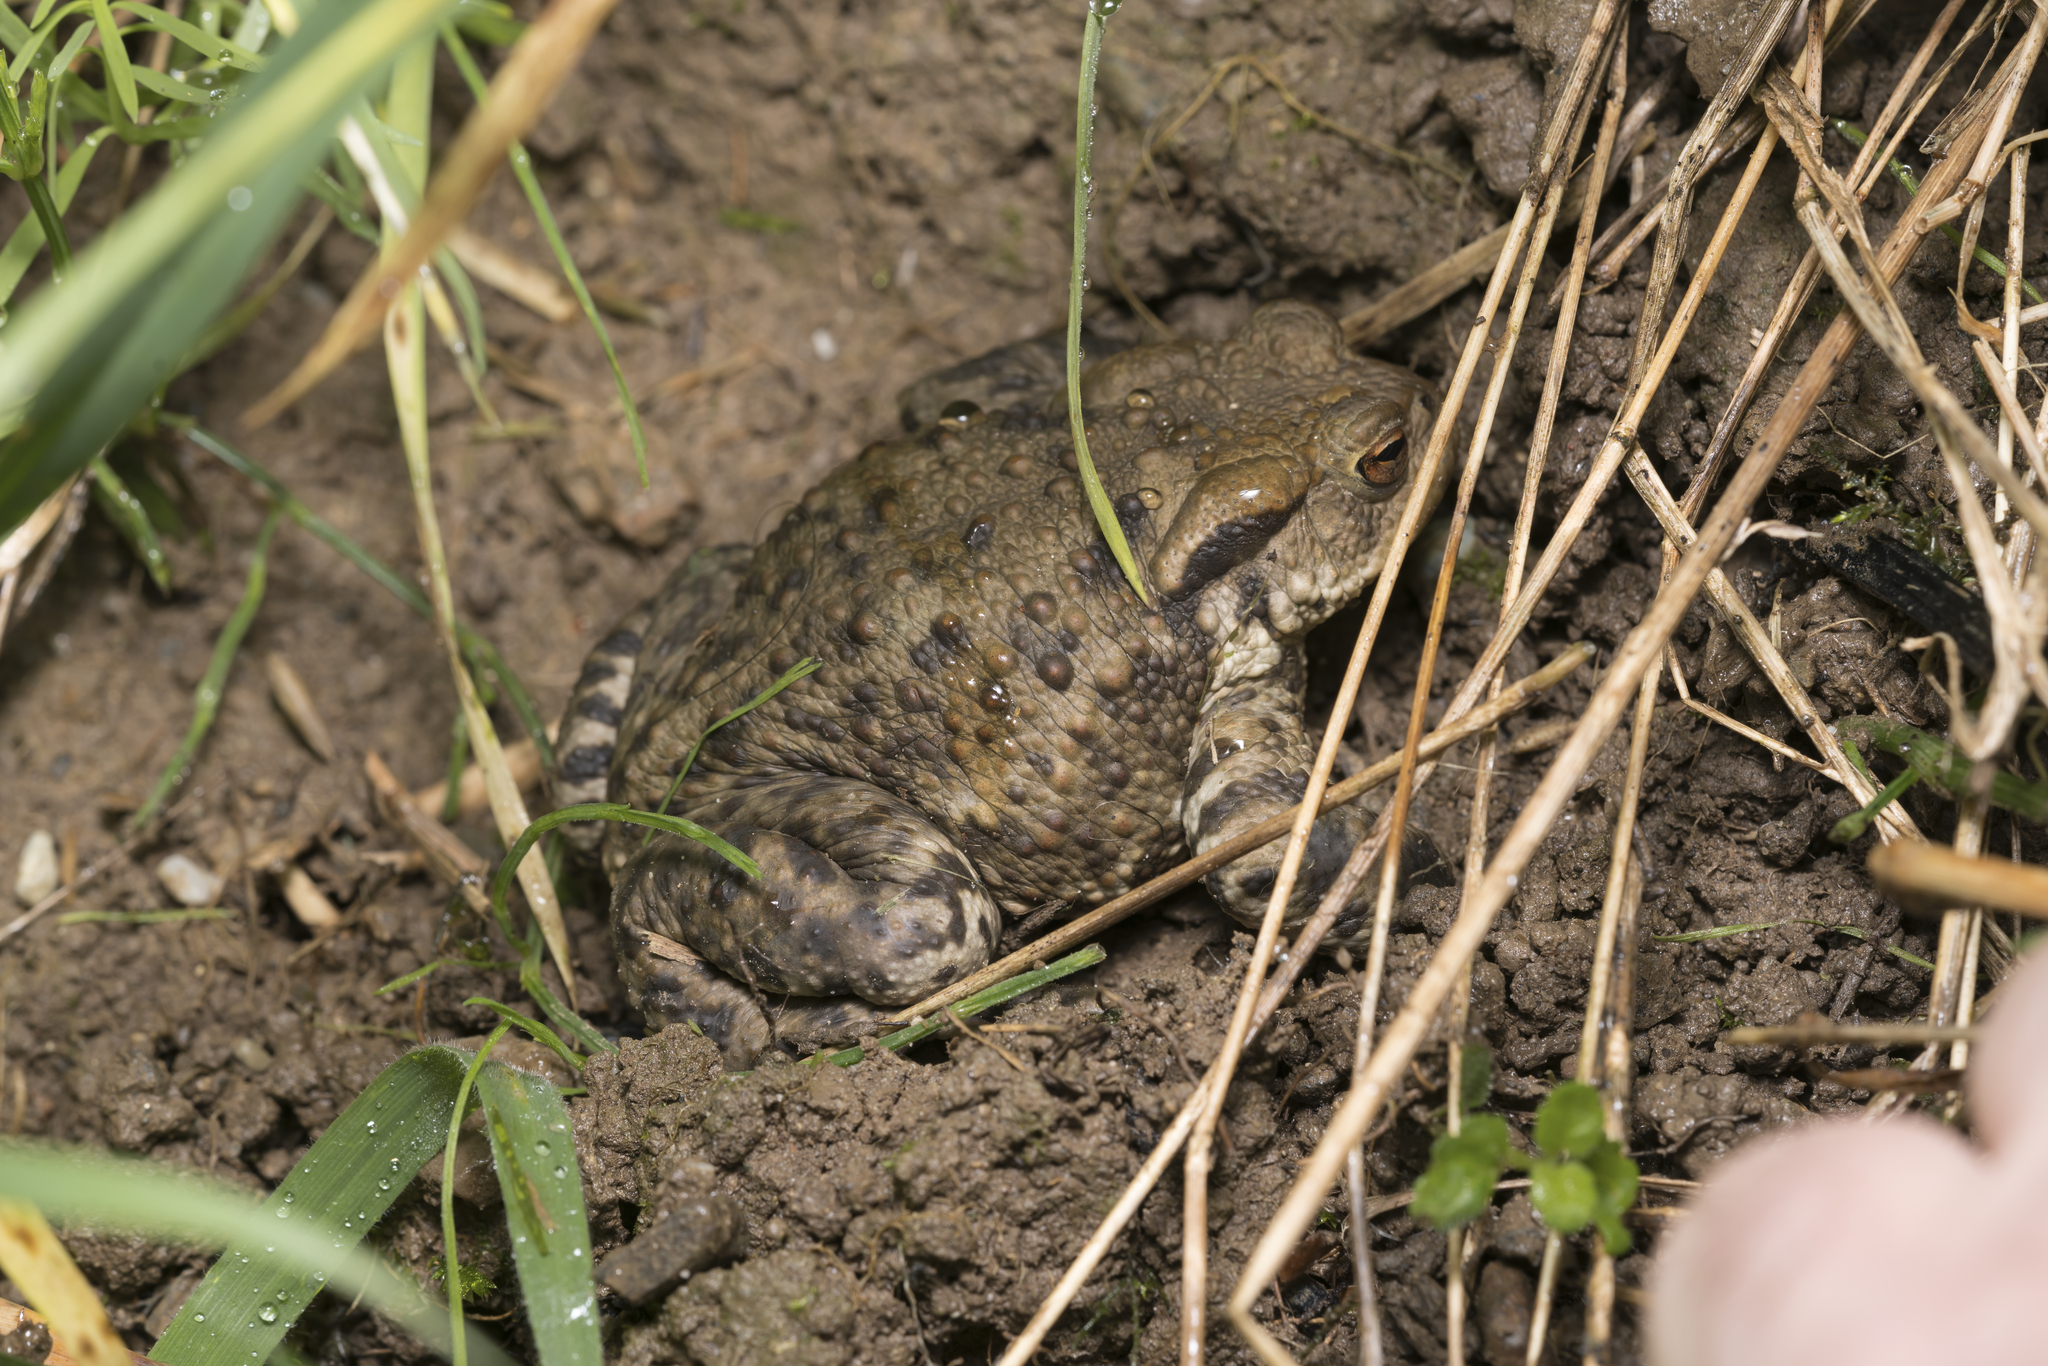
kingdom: Animalia
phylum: Chordata
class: Amphibia
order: Anura
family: Bufonidae
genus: Bufo
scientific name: Bufo bufo
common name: Common toad
